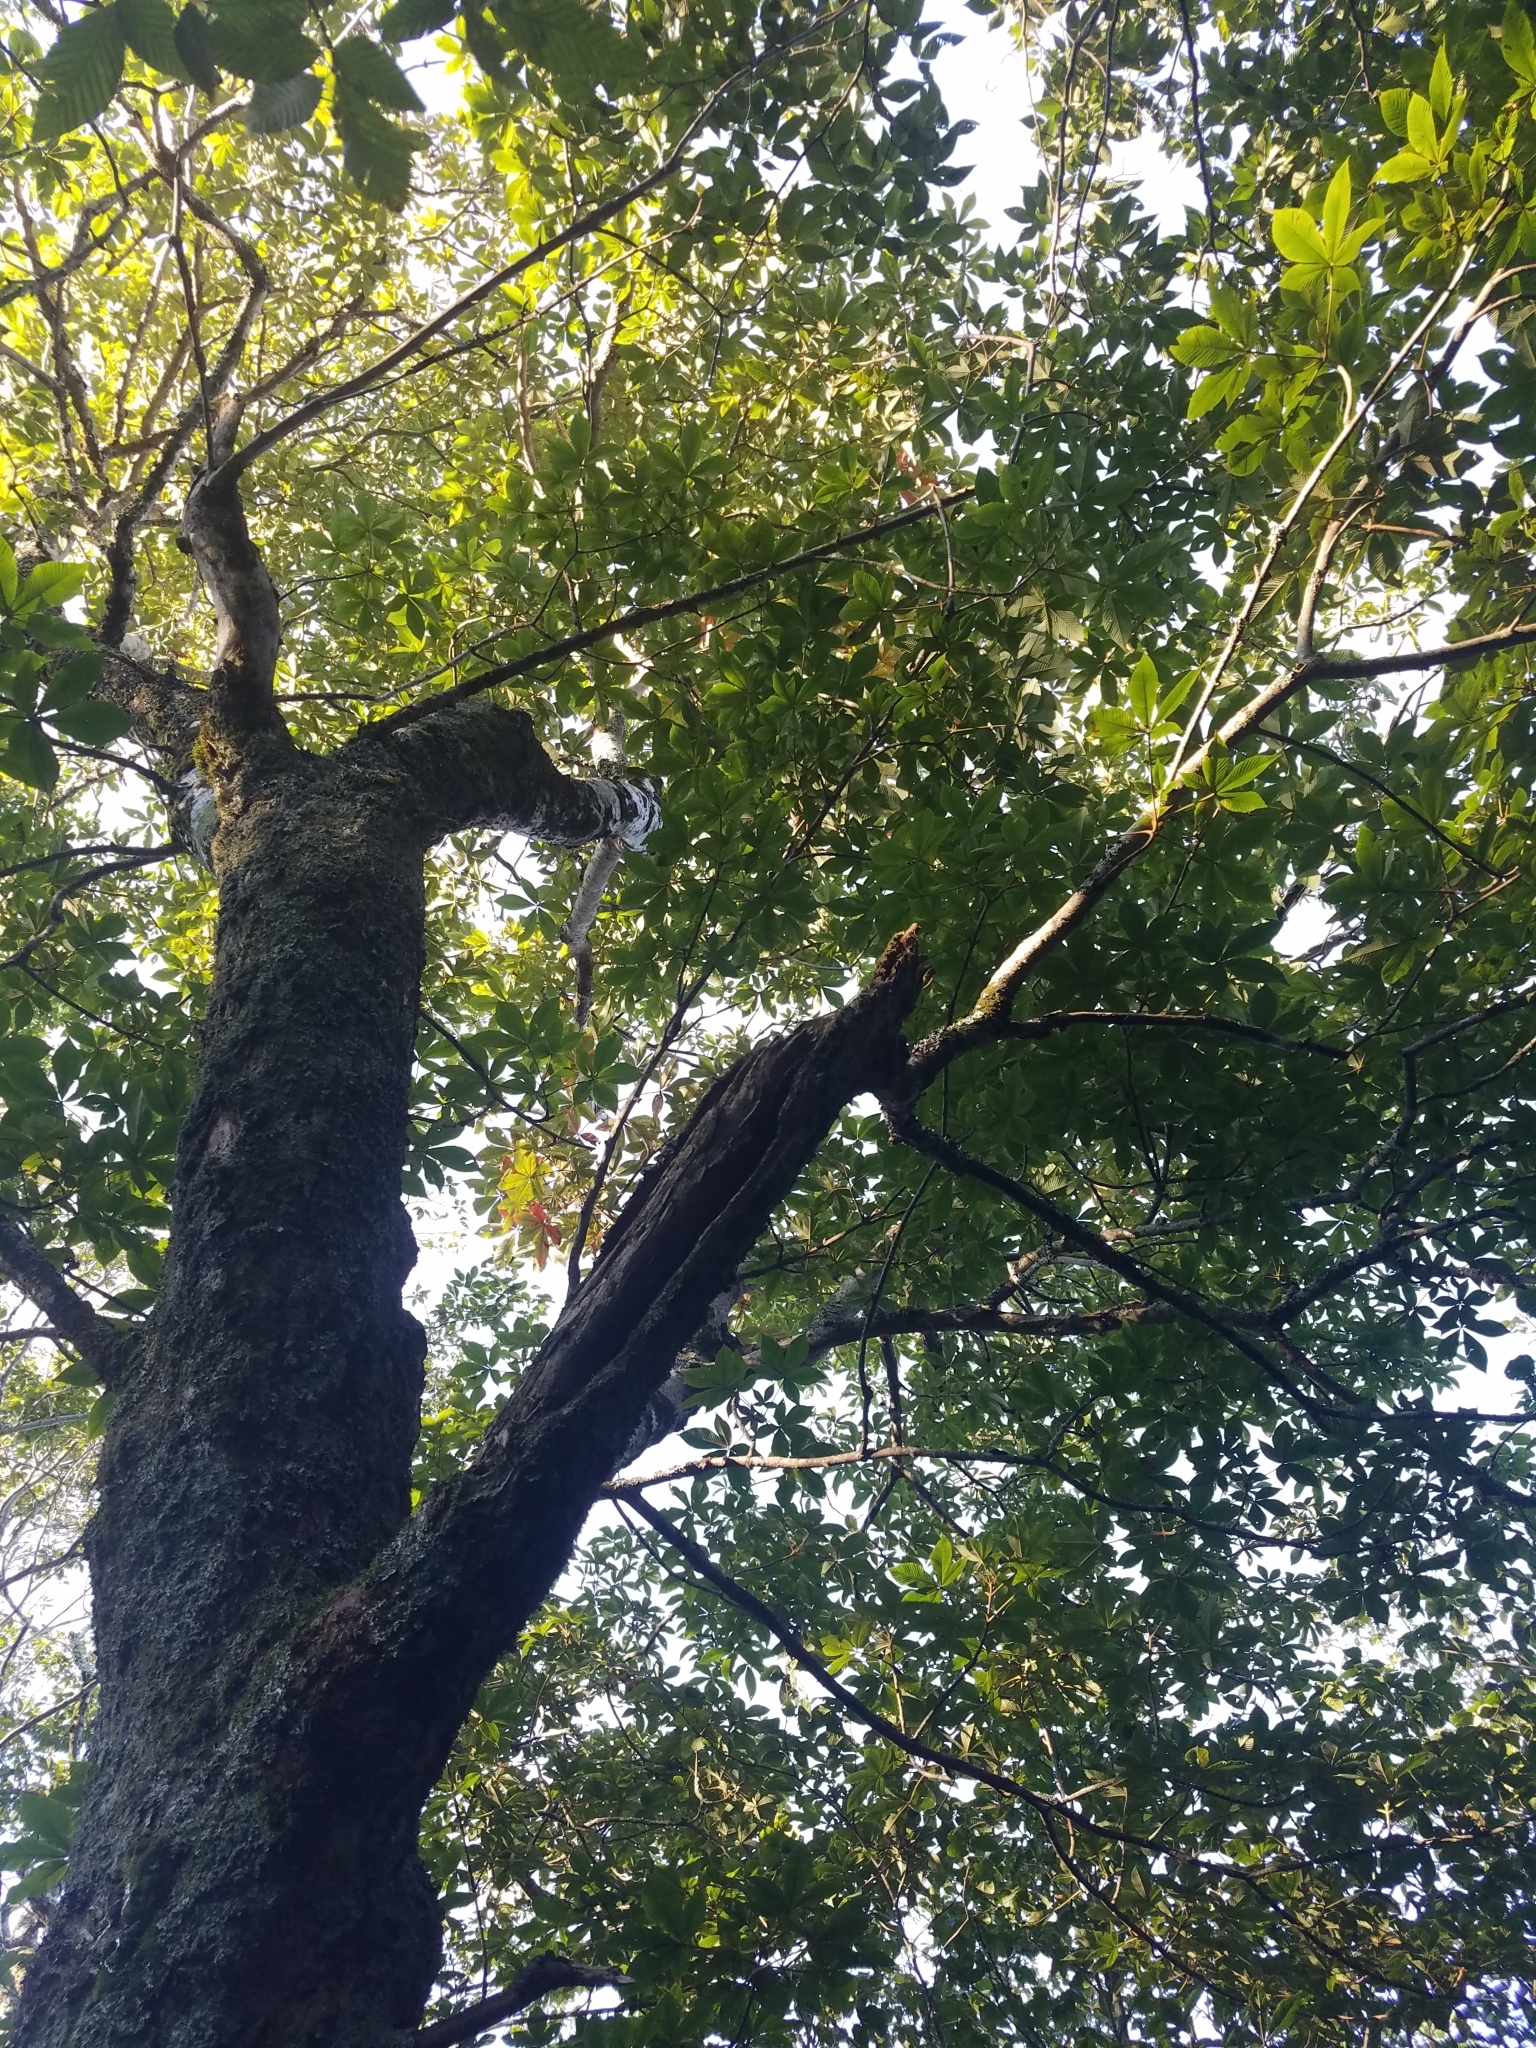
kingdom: Plantae
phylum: Tracheophyta
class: Magnoliopsida
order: Sapindales
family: Sapindaceae
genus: Aesculus
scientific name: Aesculus flava
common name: Yellow buckeye
